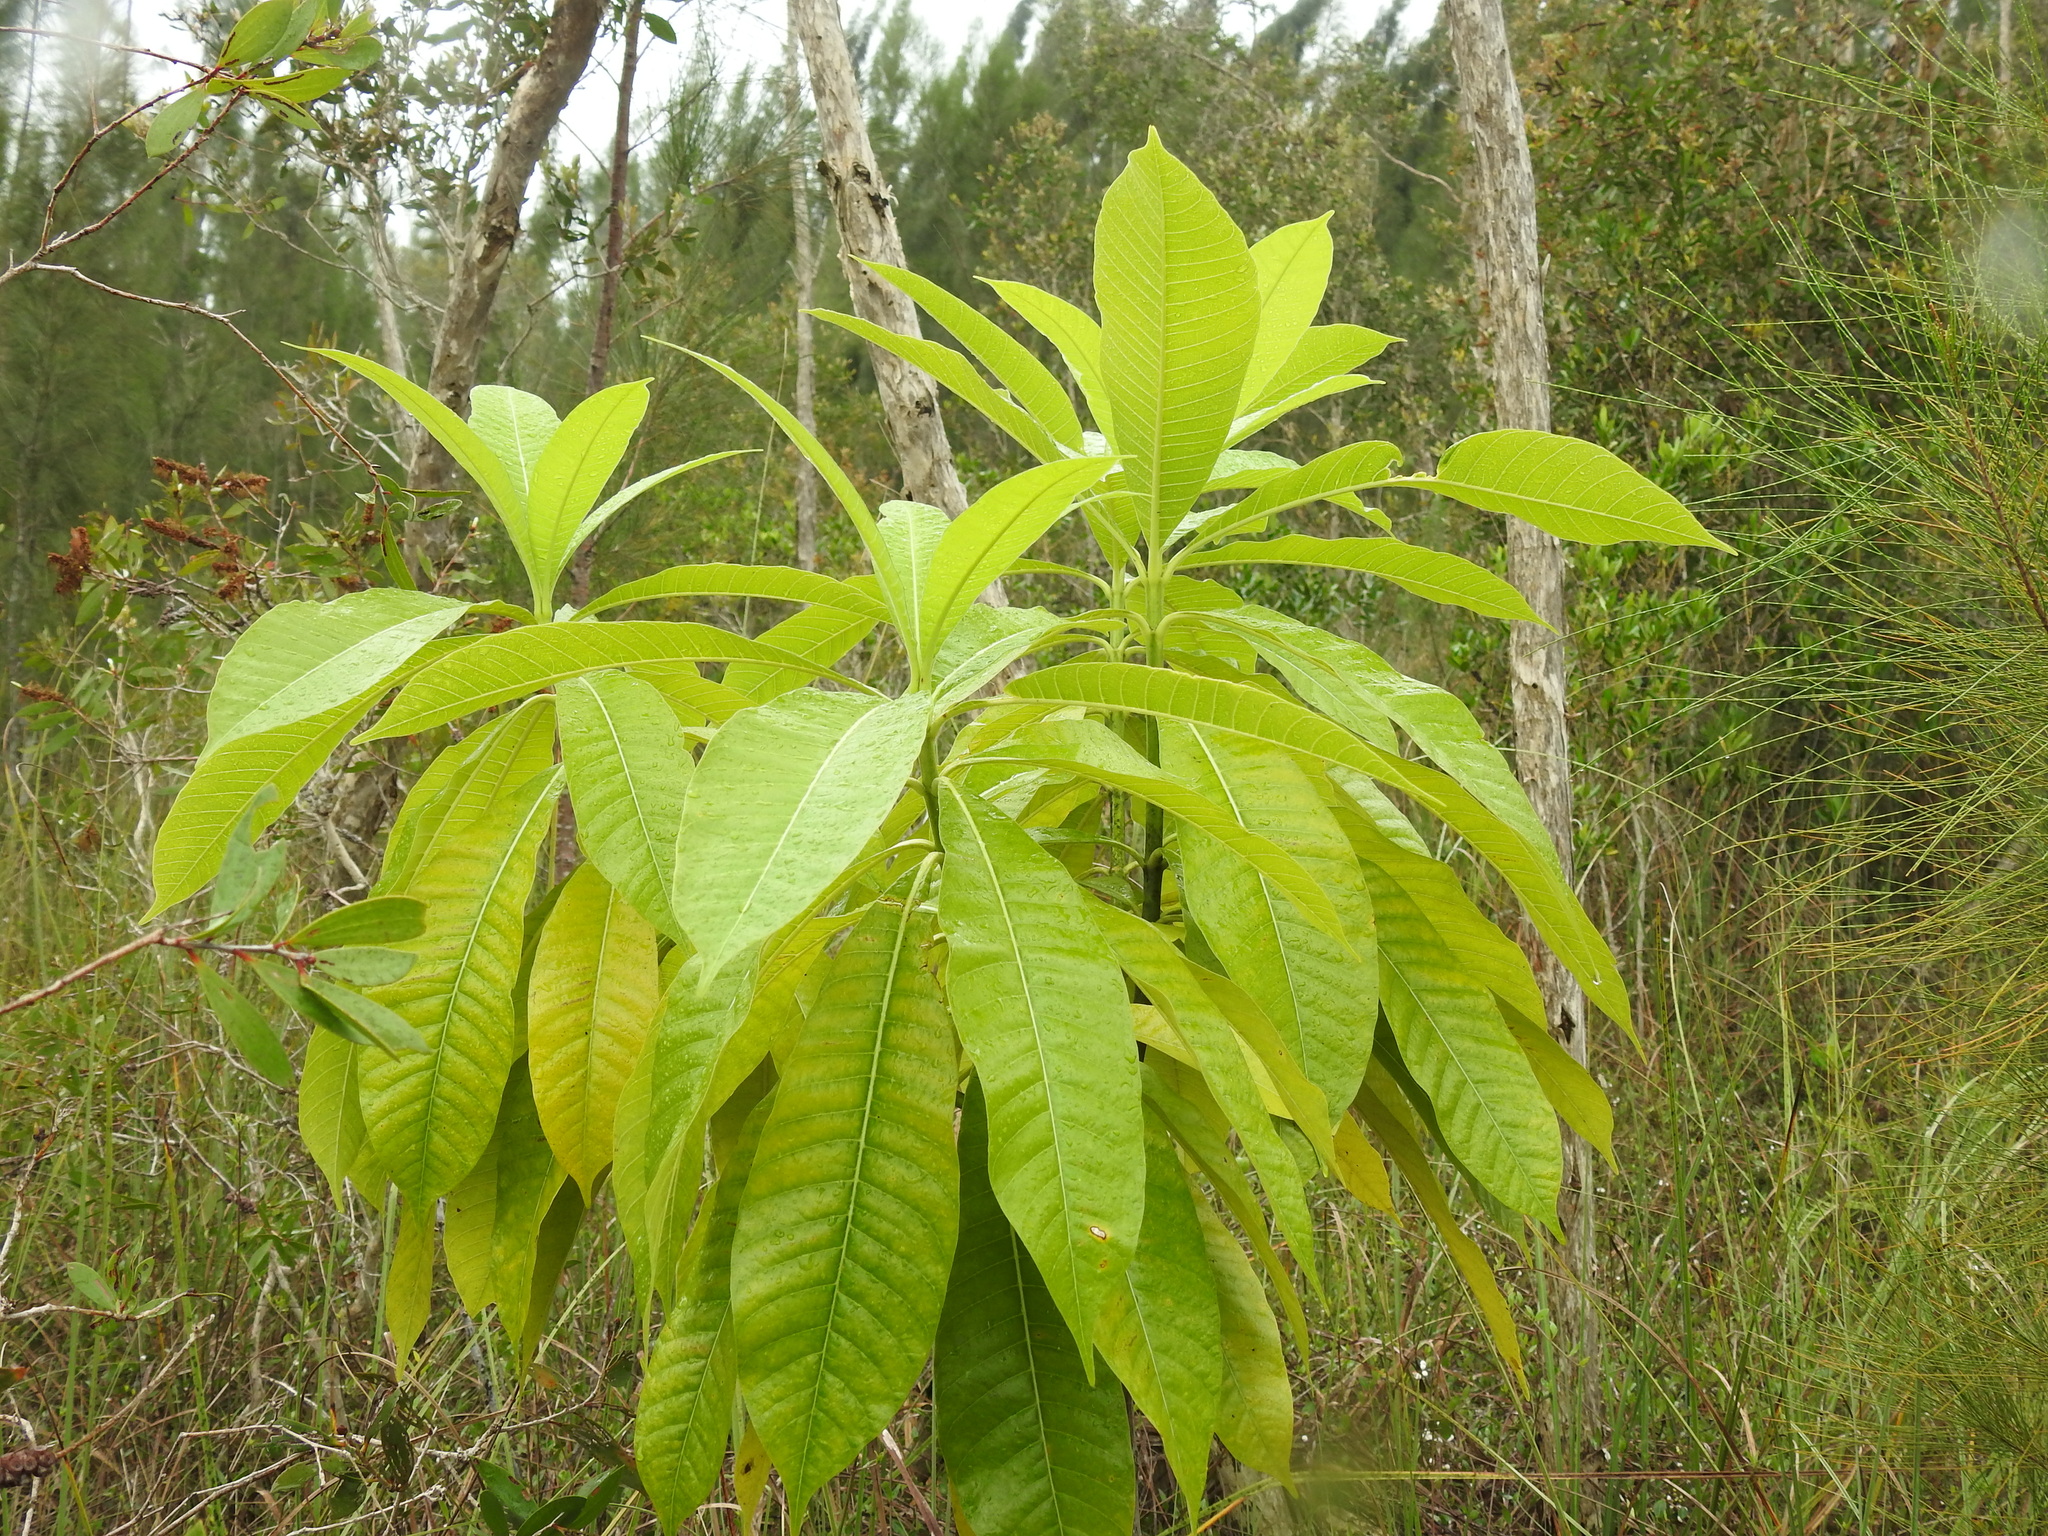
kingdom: Plantae
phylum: Tracheophyta
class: Magnoliopsida
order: Gentianales
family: Apocynaceae
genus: Alstonia
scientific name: Alstonia macrophylla
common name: Deviltree
